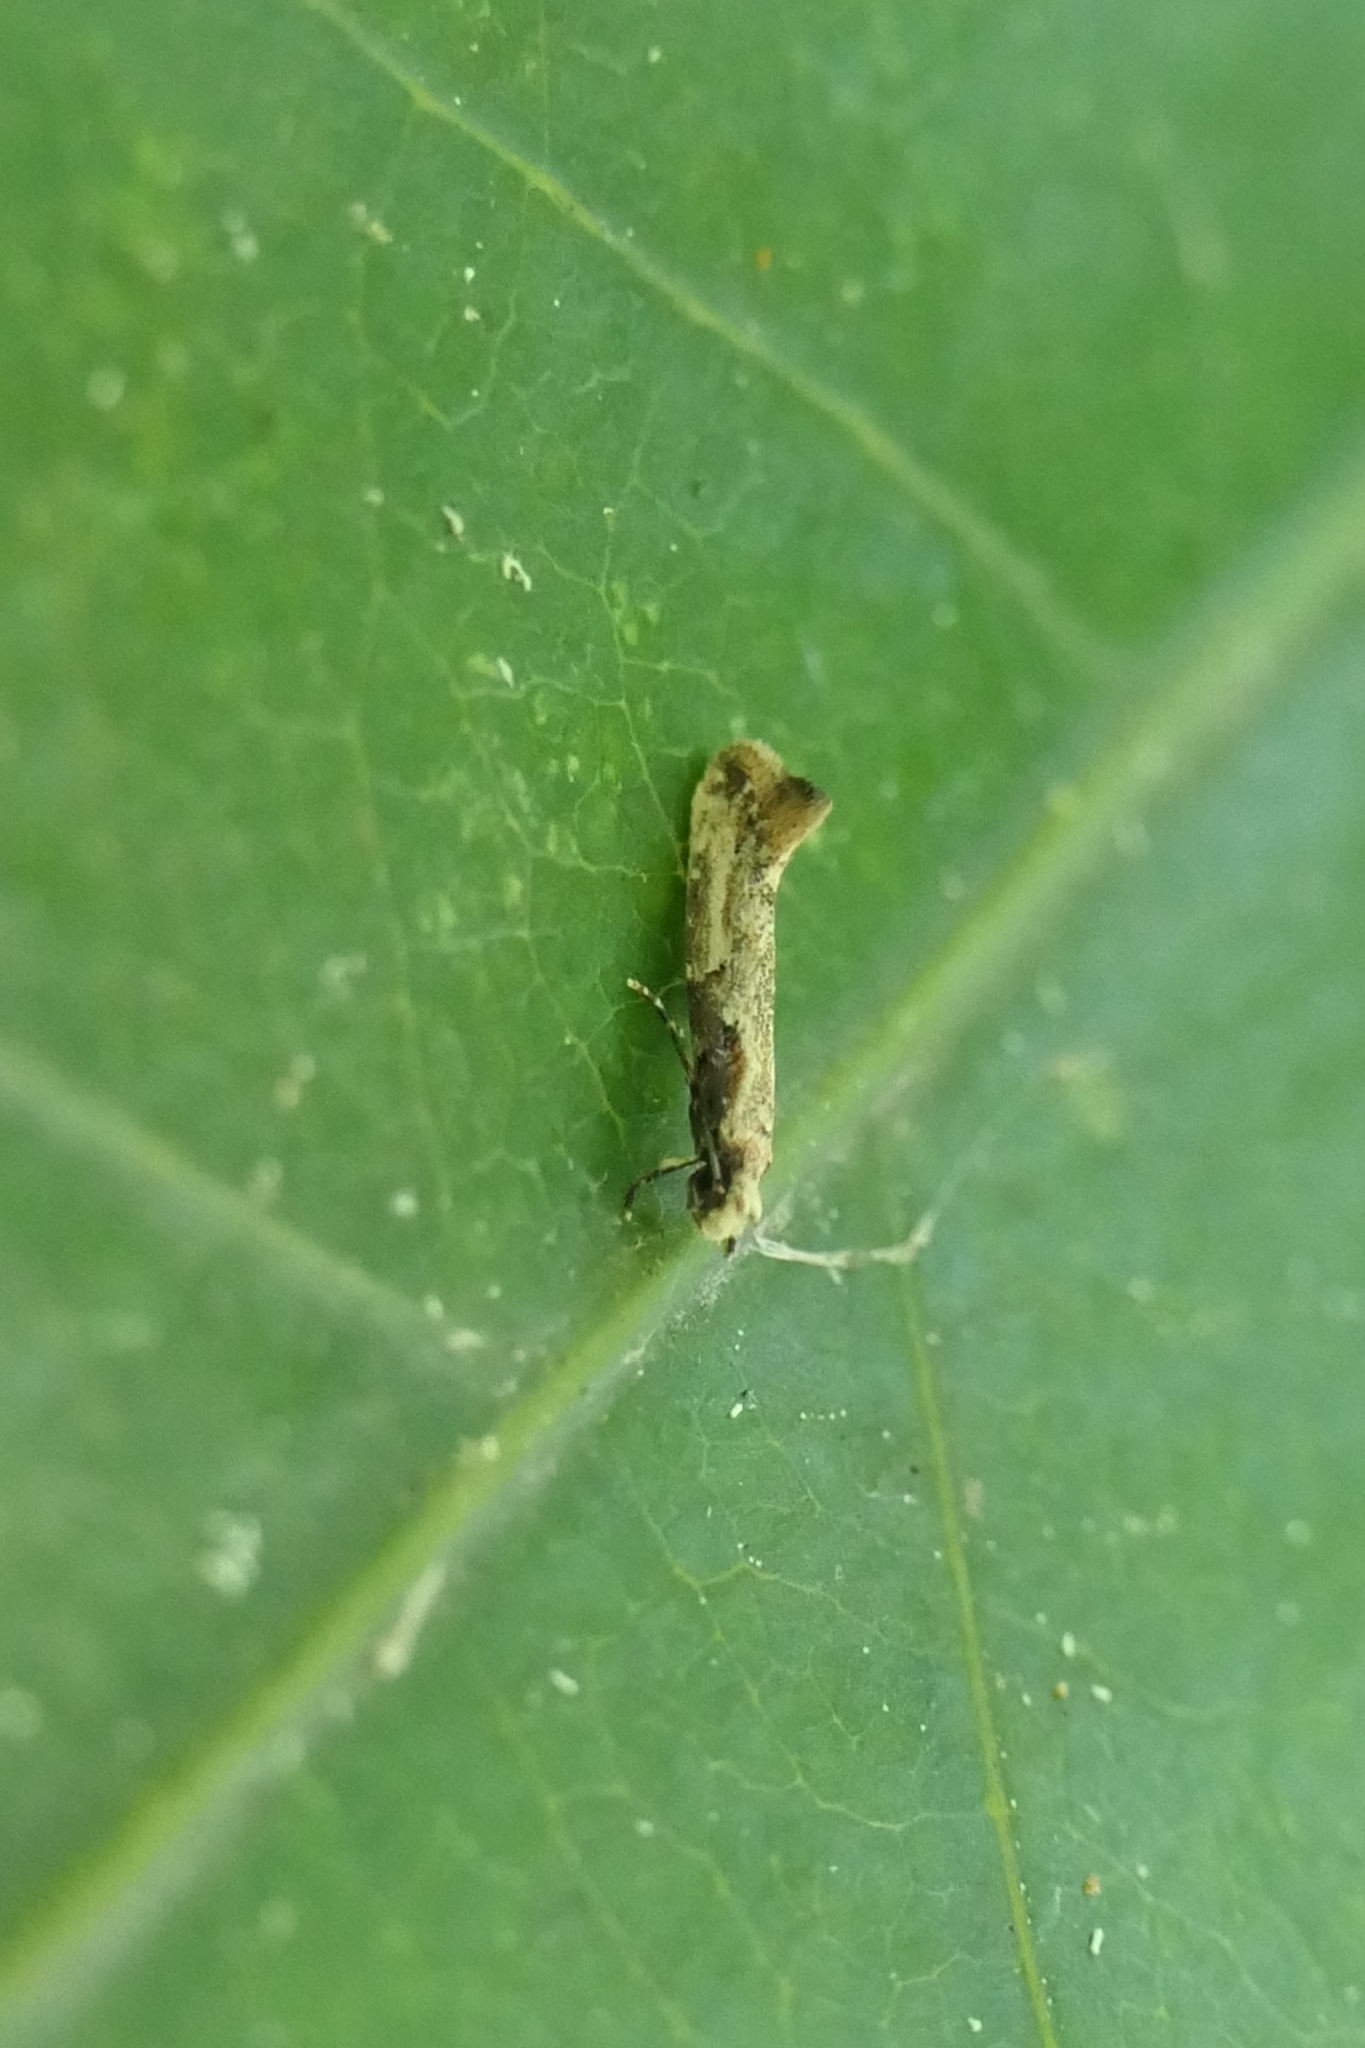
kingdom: Animalia
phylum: Arthropoda
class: Insecta
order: Lepidoptera
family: Tineidae
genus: Crypsitricha
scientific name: Crypsitricha pharotoma
